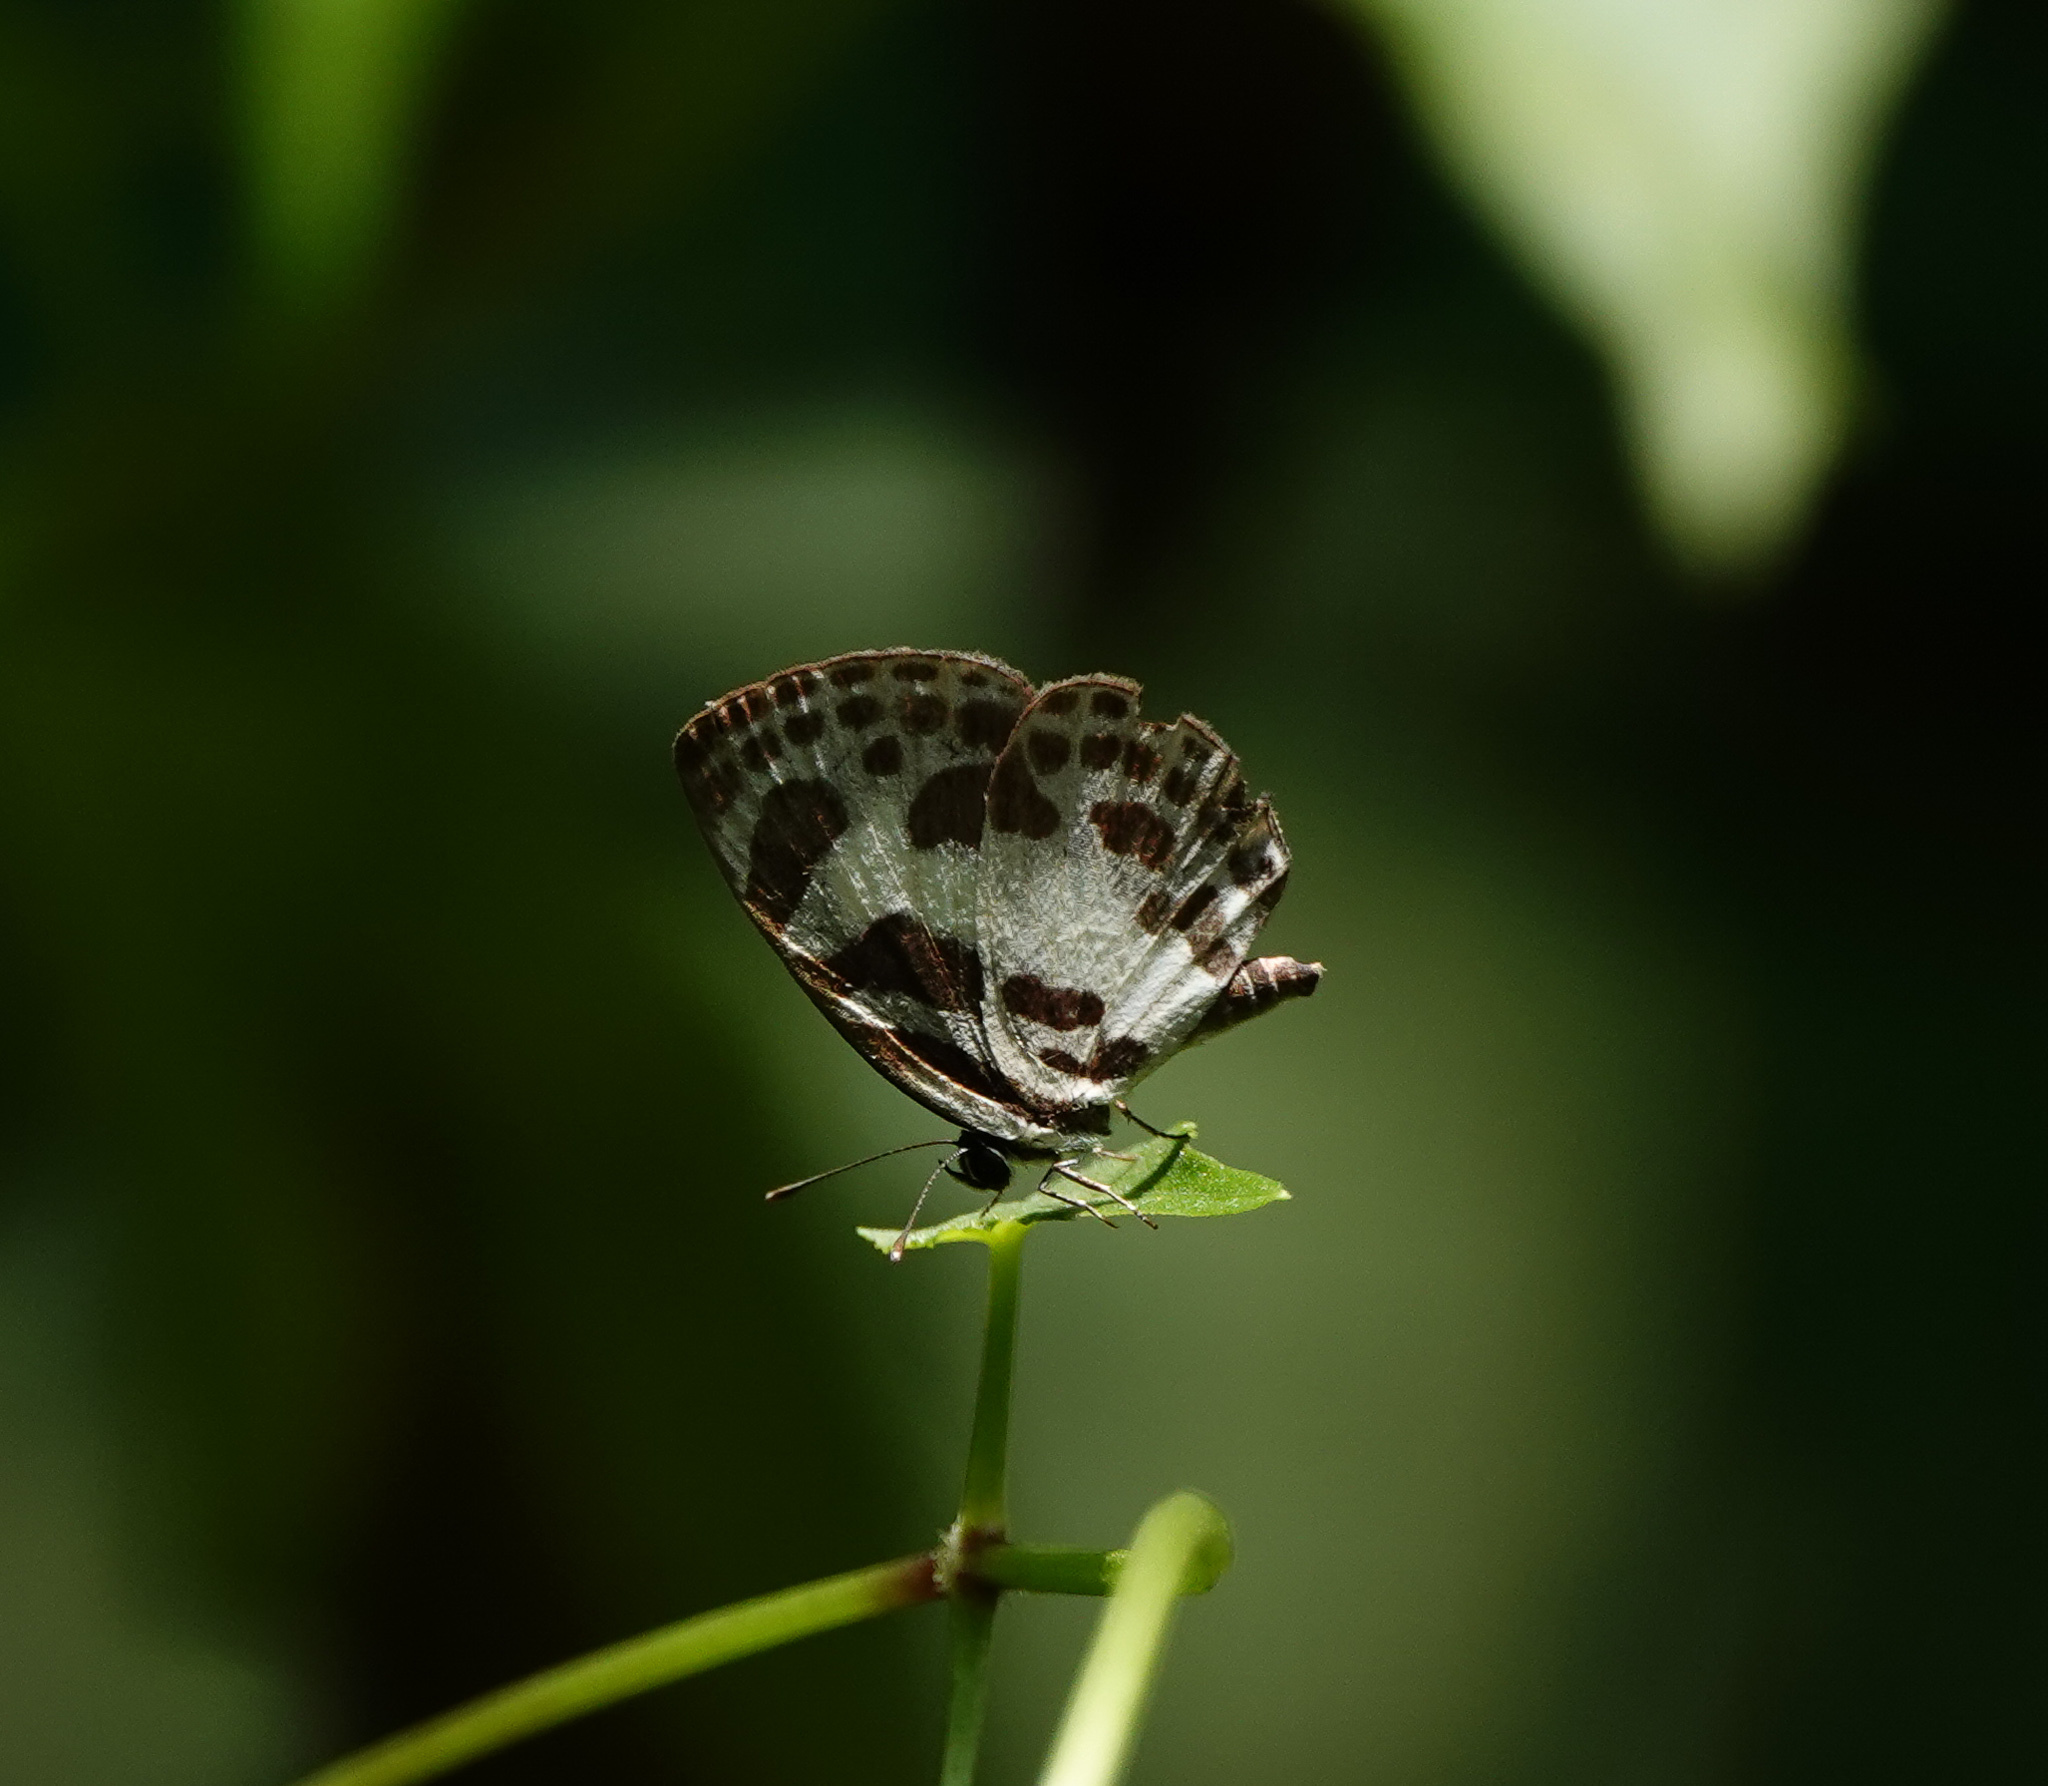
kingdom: Animalia
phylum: Arthropoda
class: Insecta
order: Lepidoptera
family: Lycaenidae
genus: Discolampa
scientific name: Discolampa ethion
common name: Banded blue pierrot
